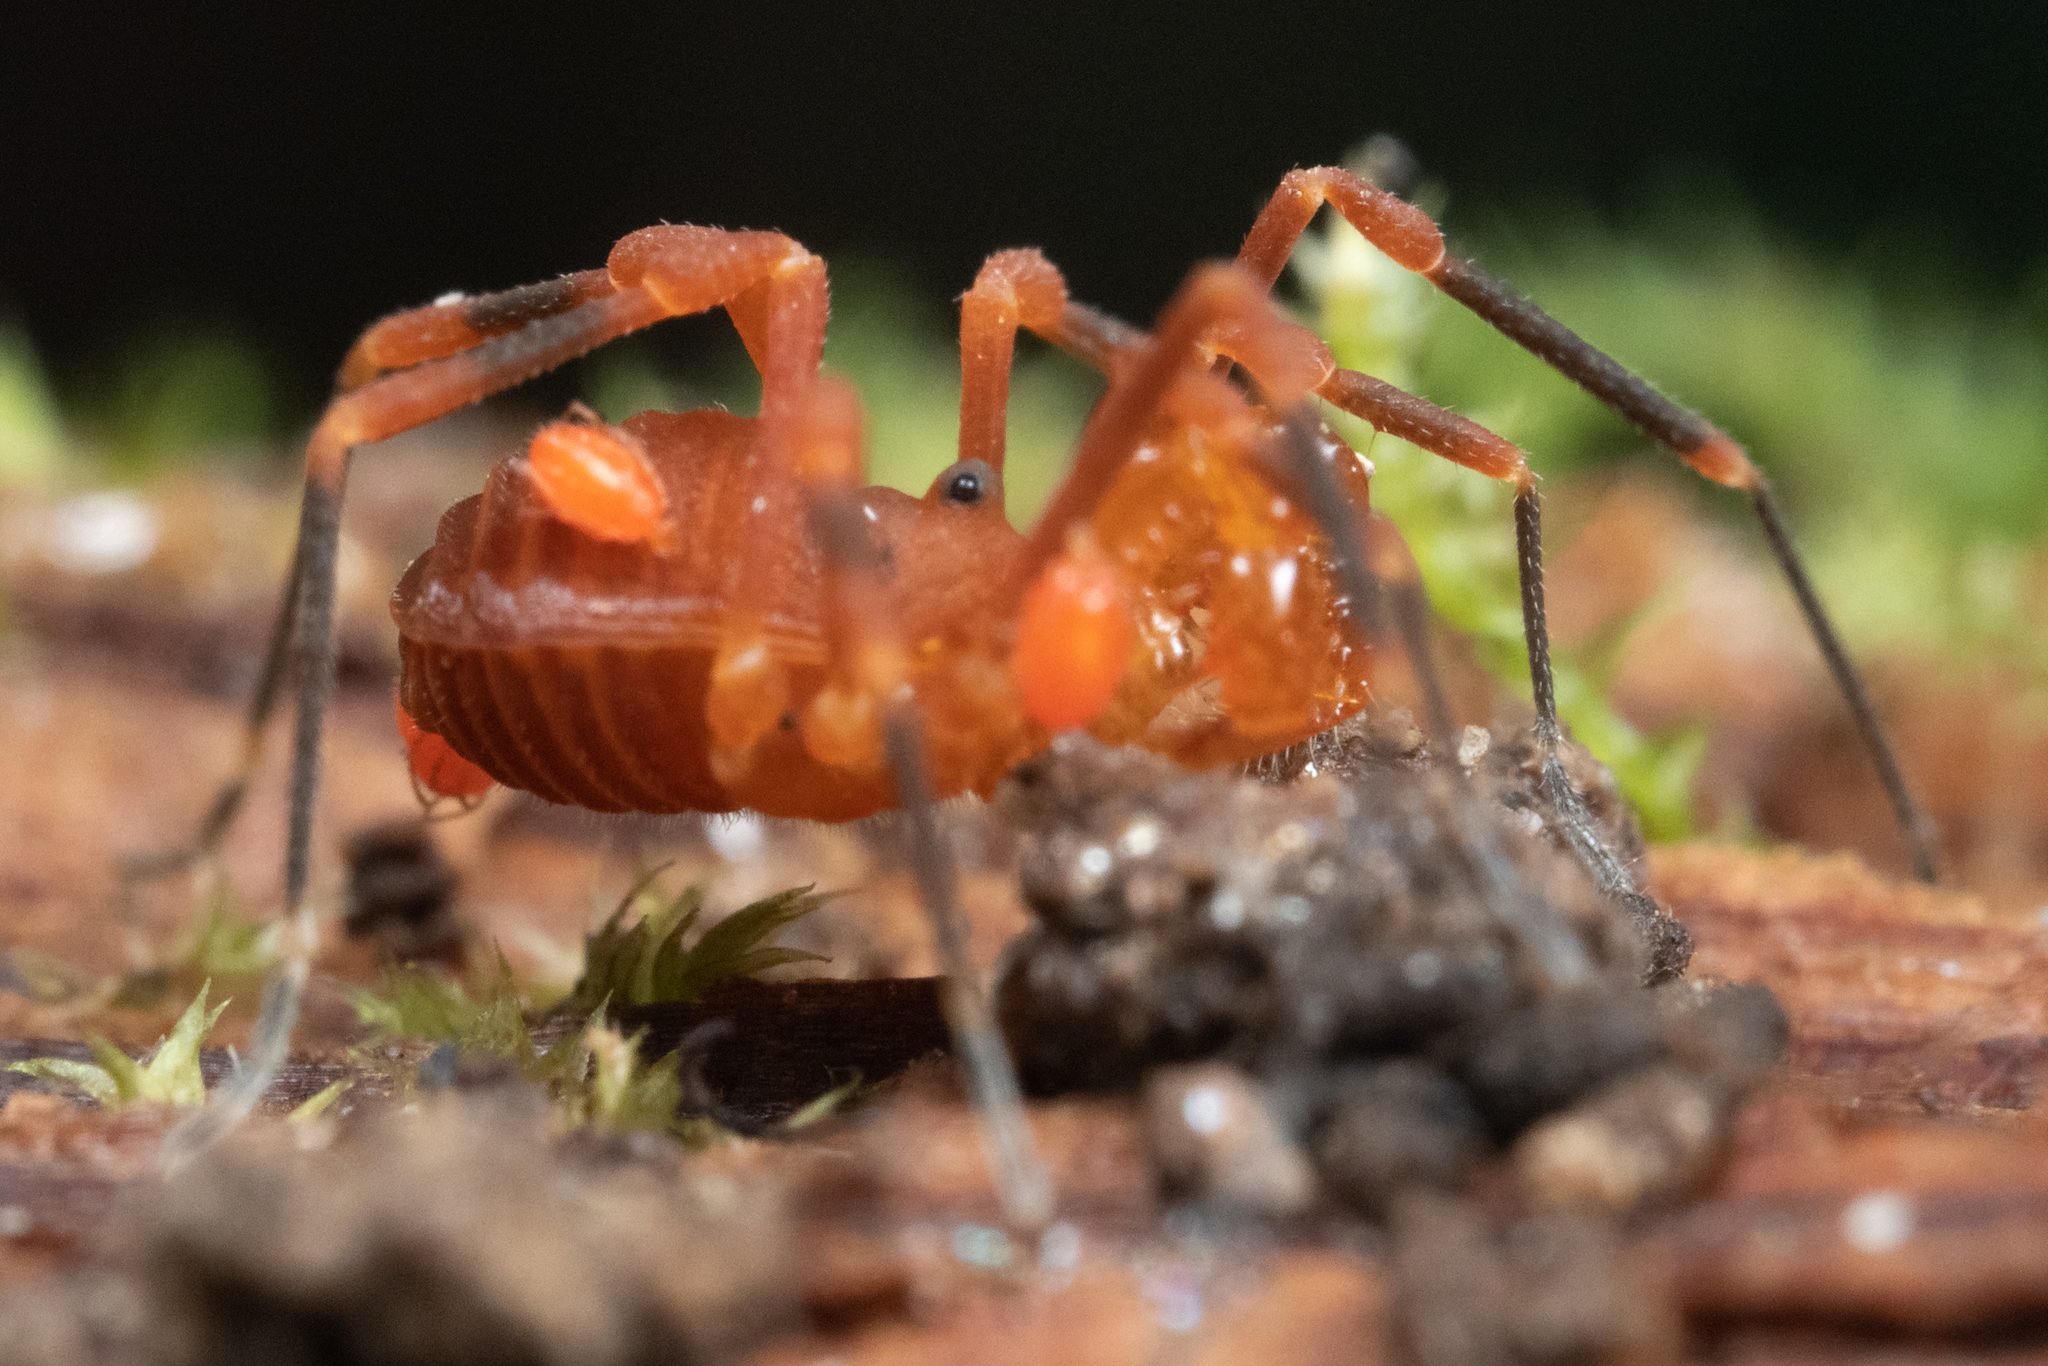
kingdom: Animalia
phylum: Arthropoda
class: Arachnida
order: Opiliones
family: Paranonychidae
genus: Sclerobunus
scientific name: Sclerobunus nondimorphicus
